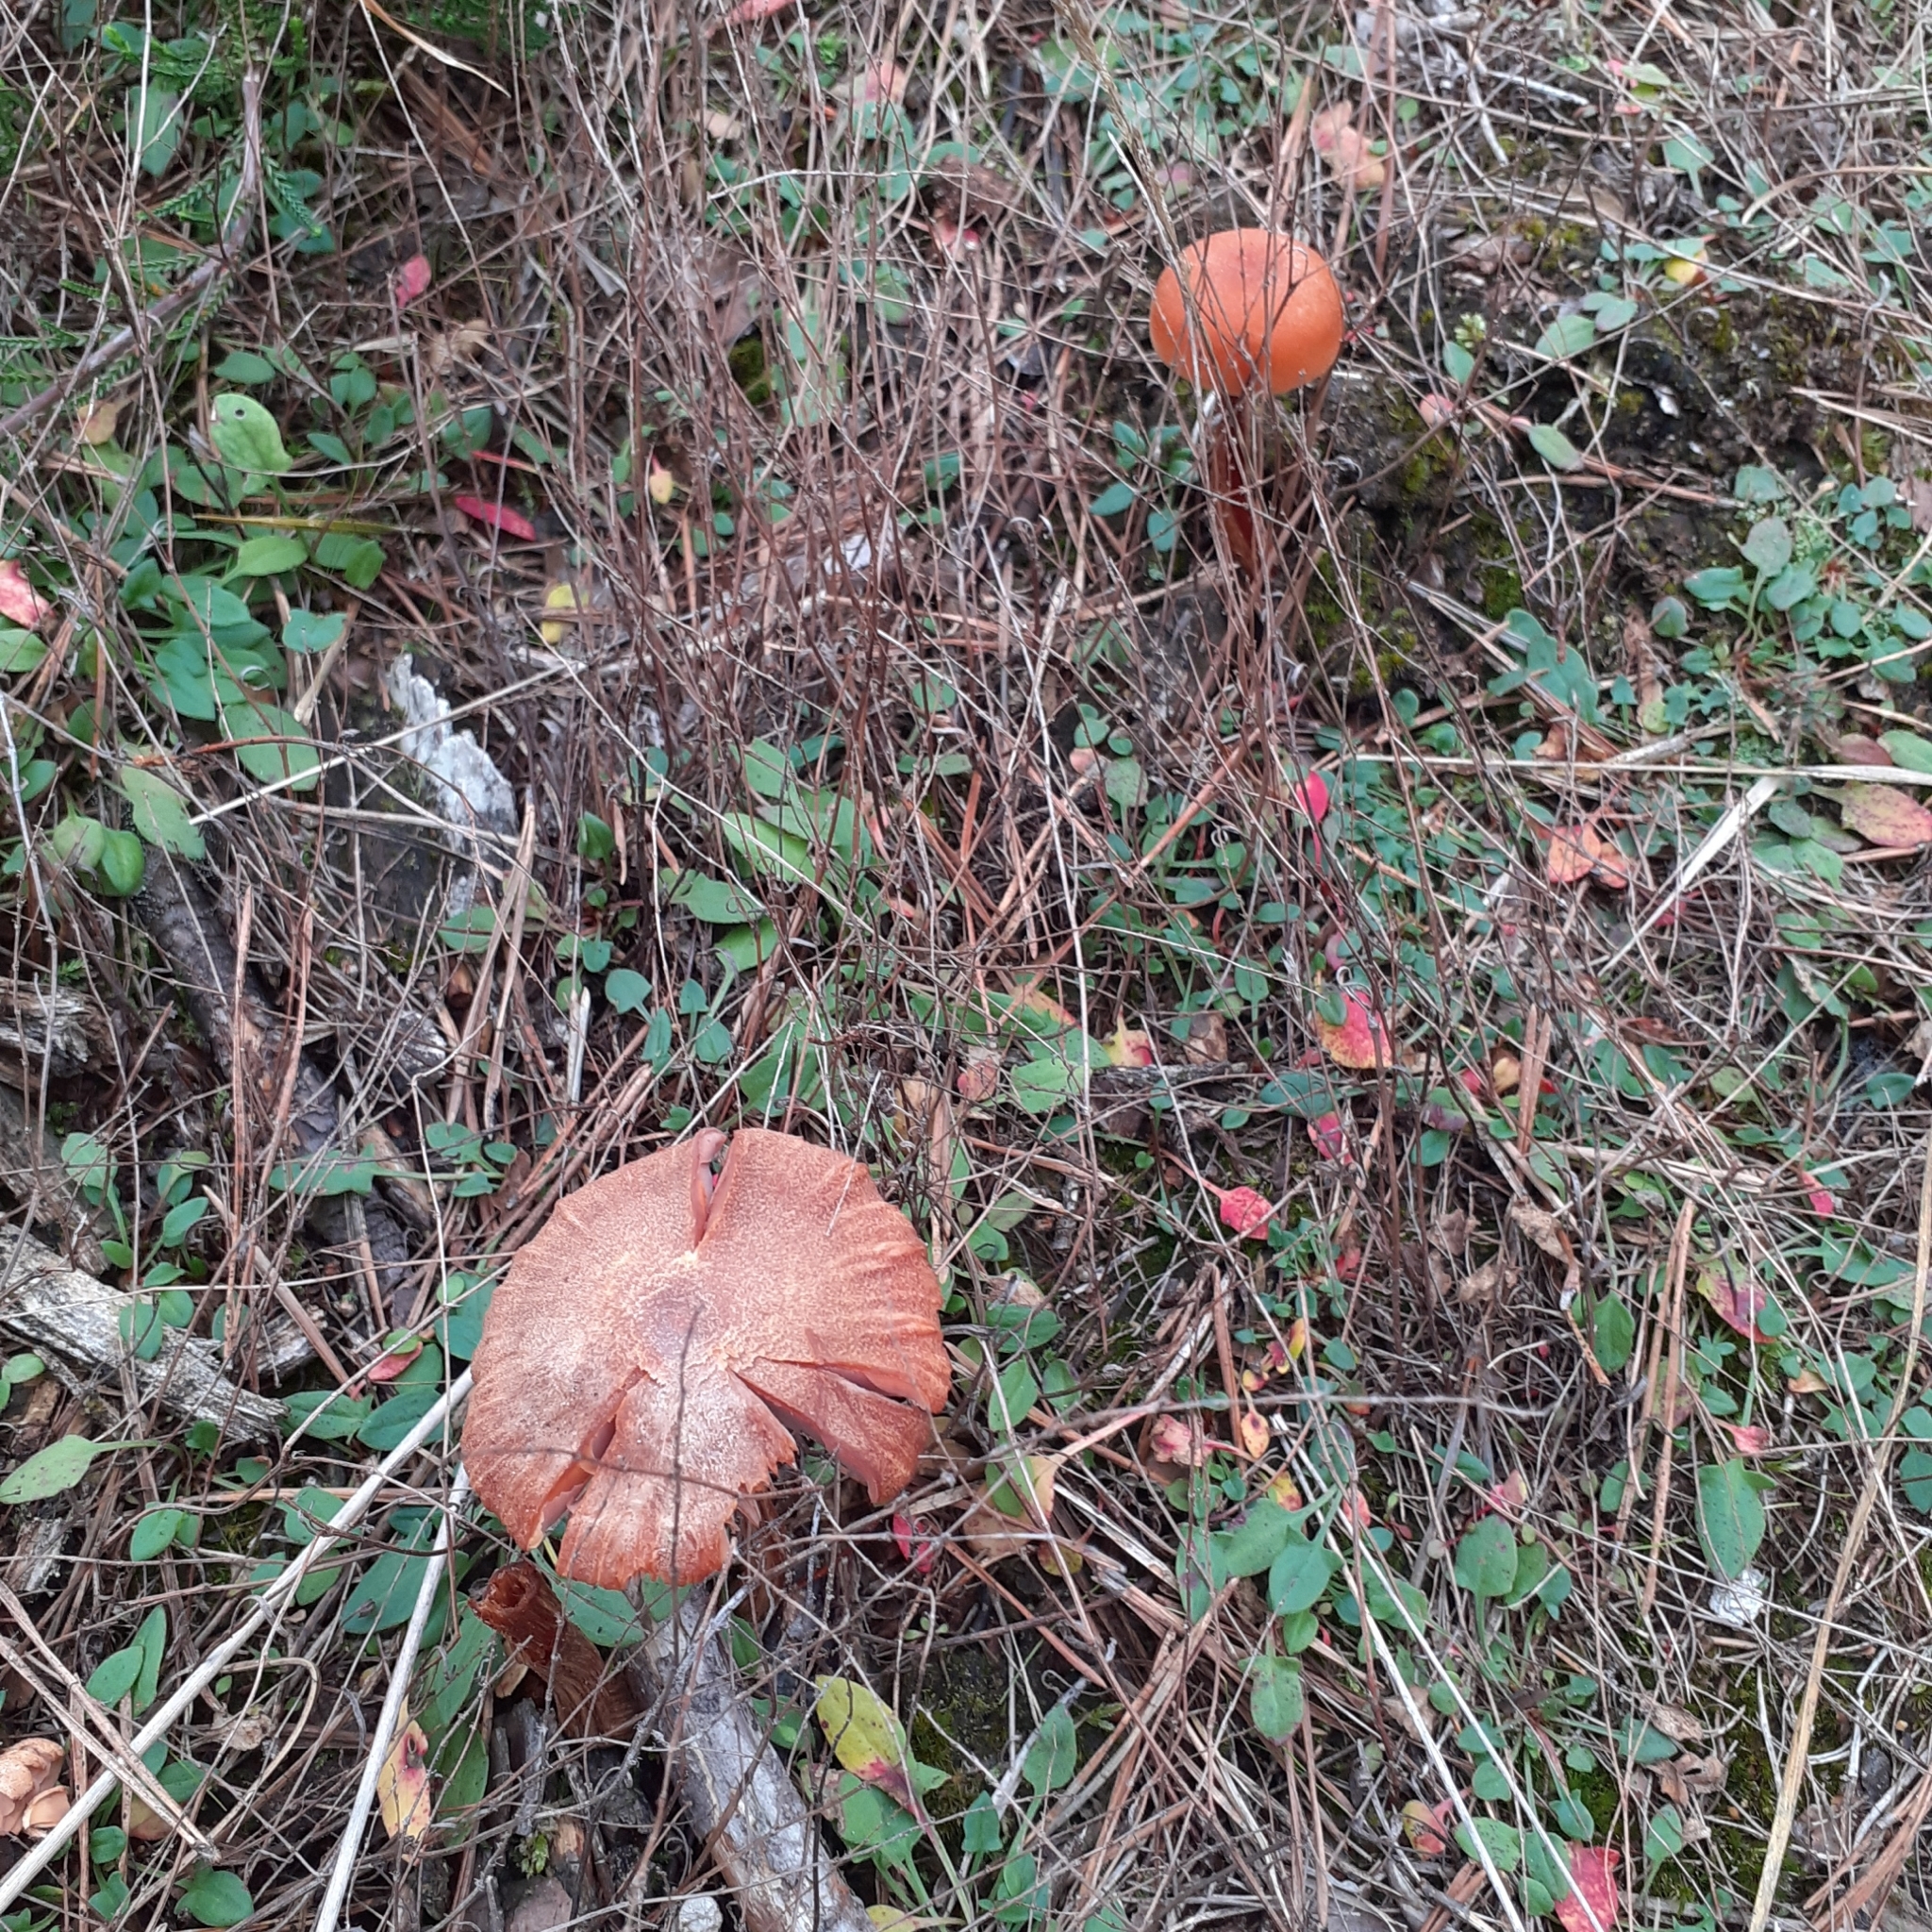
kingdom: Fungi
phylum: Basidiomycota
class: Agaricomycetes
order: Agaricales
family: Hydnangiaceae
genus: Laccaria
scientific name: Laccaria laccata
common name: Deceiver
